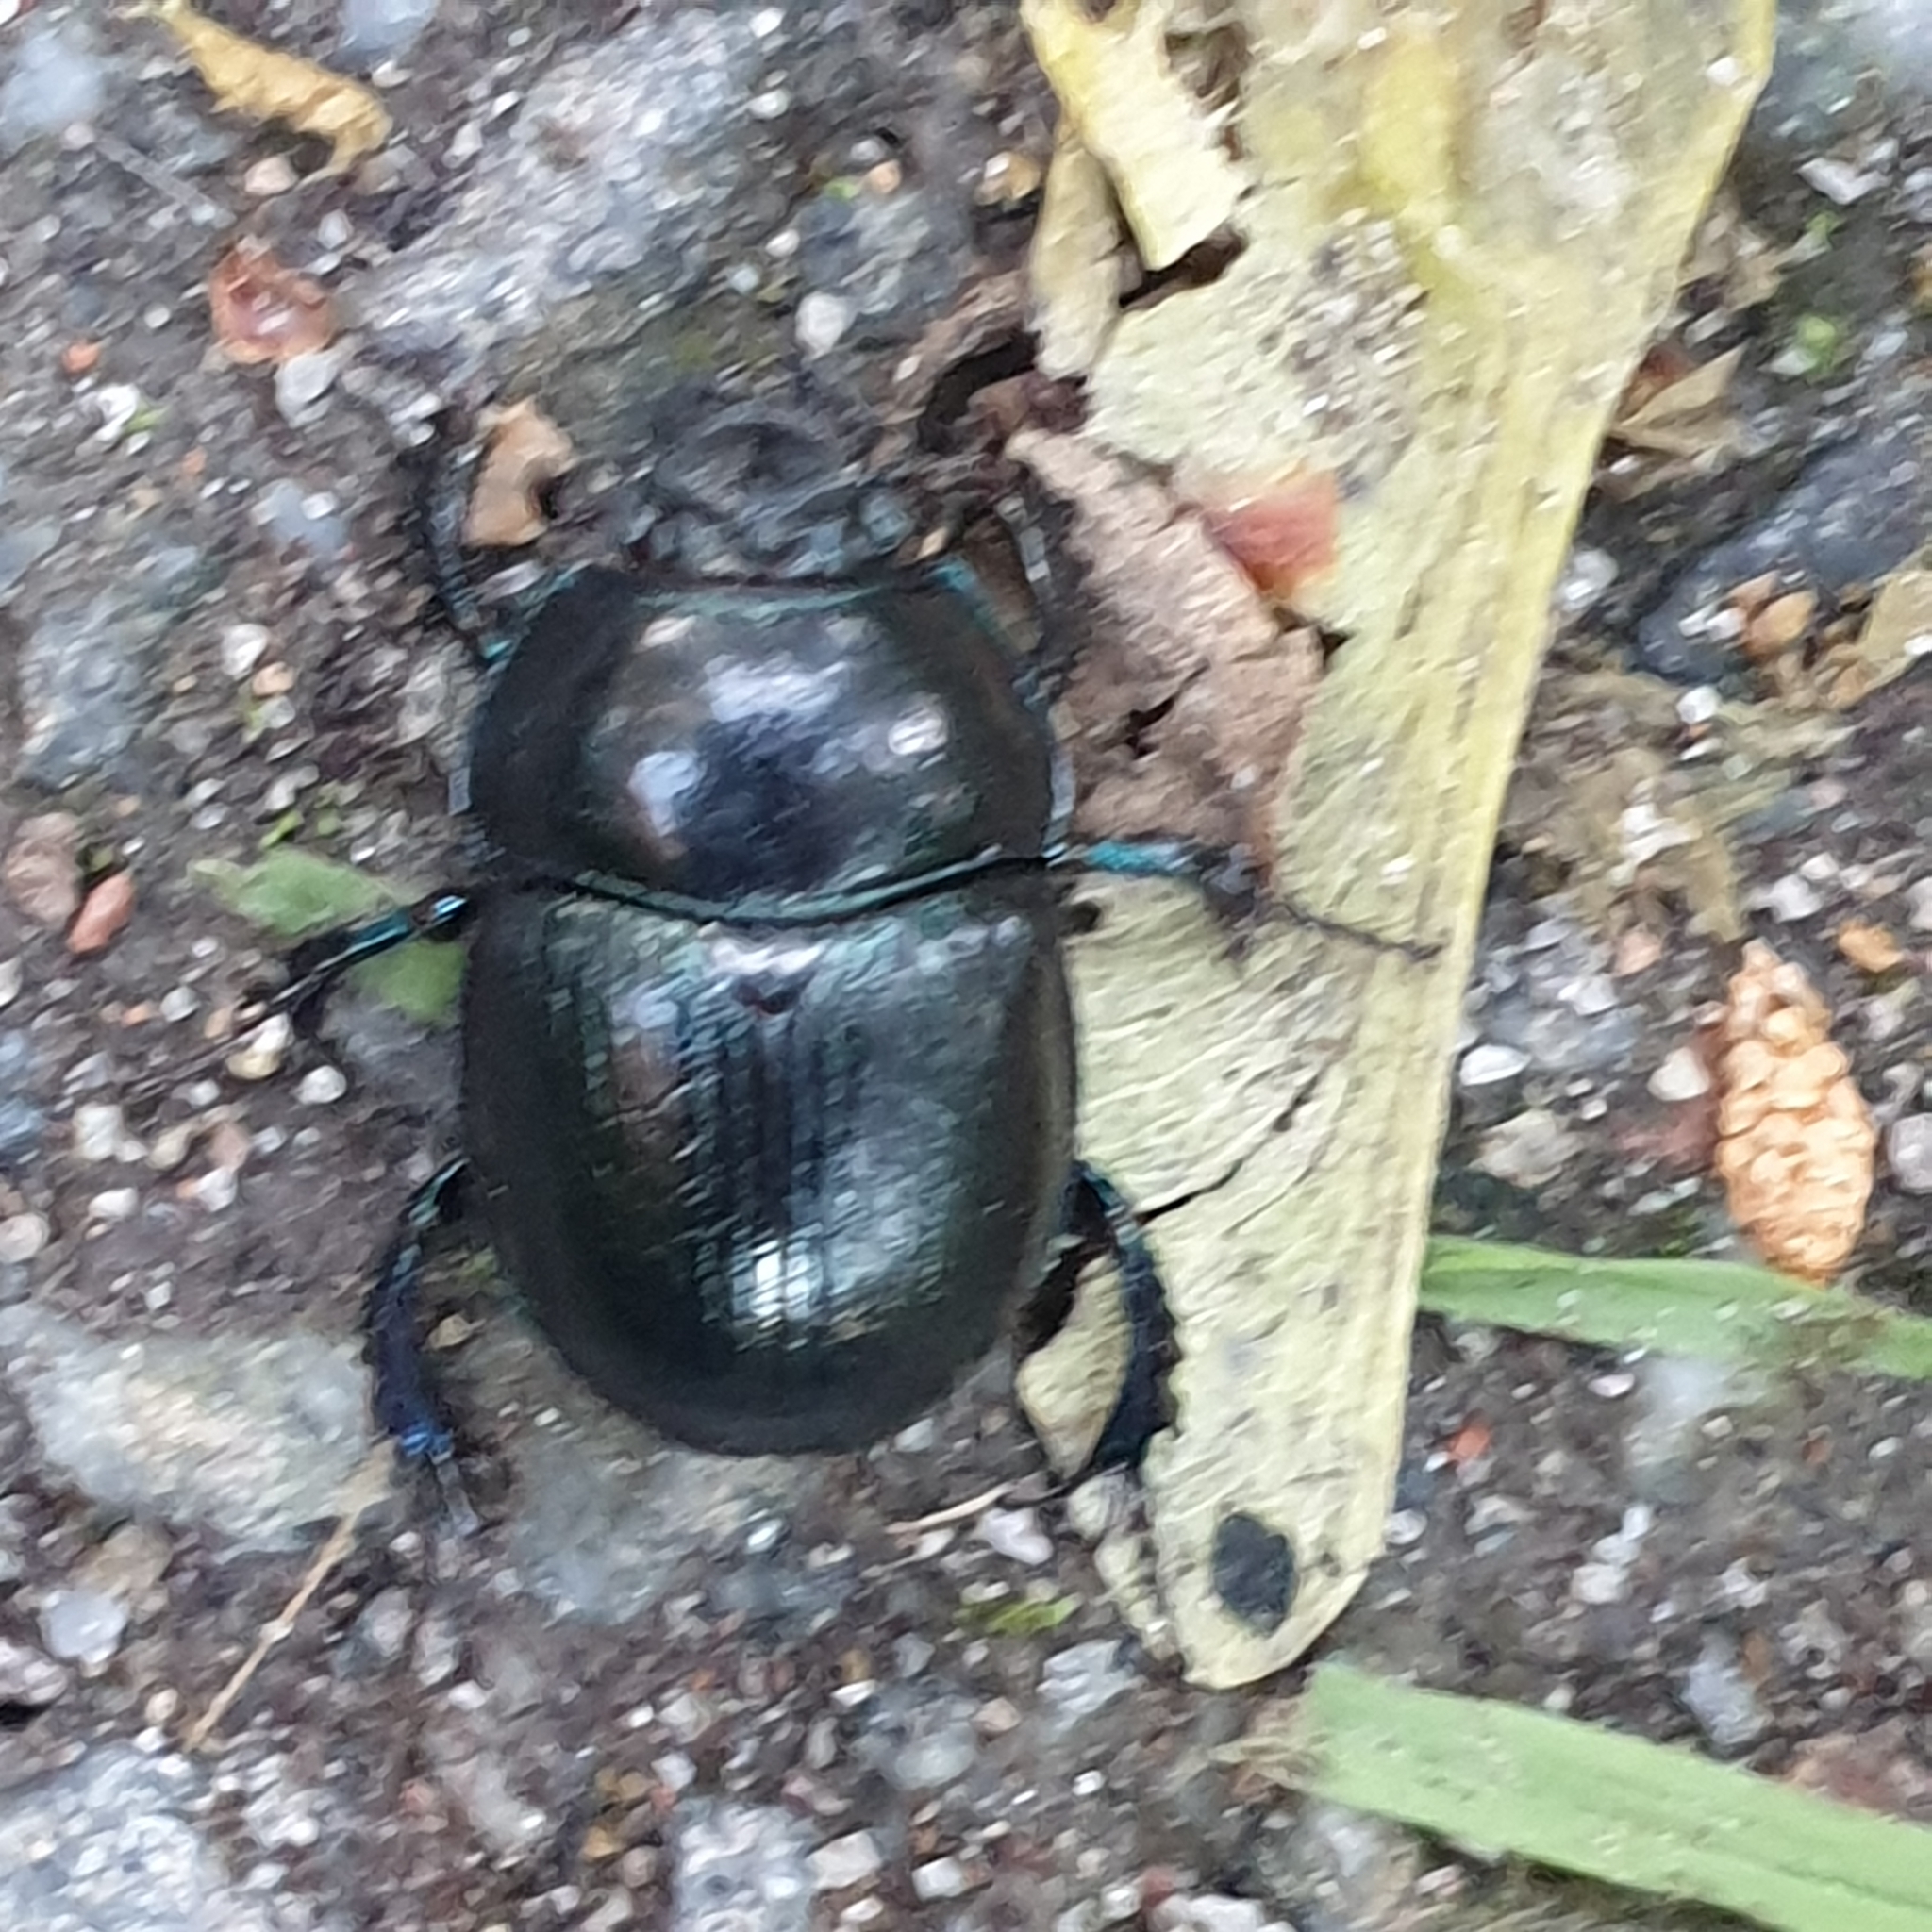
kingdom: Animalia
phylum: Arthropoda
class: Insecta
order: Coleoptera
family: Geotrupidae
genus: Anoplotrupes
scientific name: Anoplotrupes stercorosus
